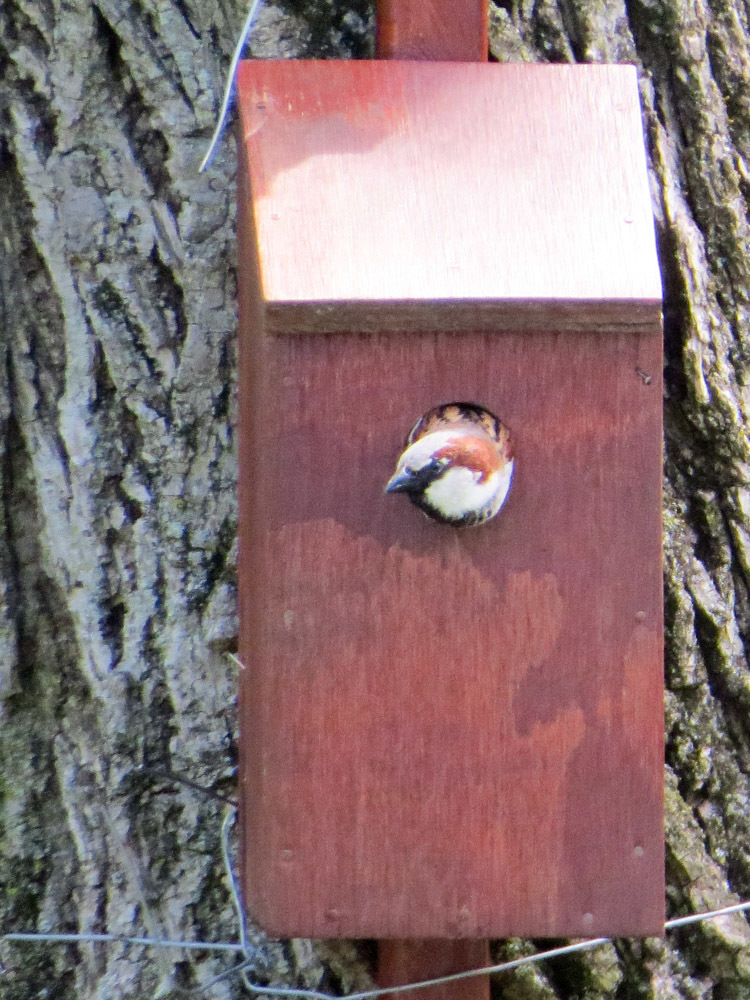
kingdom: Animalia
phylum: Chordata
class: Aves
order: Passeriformes
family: Passeridae
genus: Passer
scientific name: Passer domesticus
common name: House sparrow
